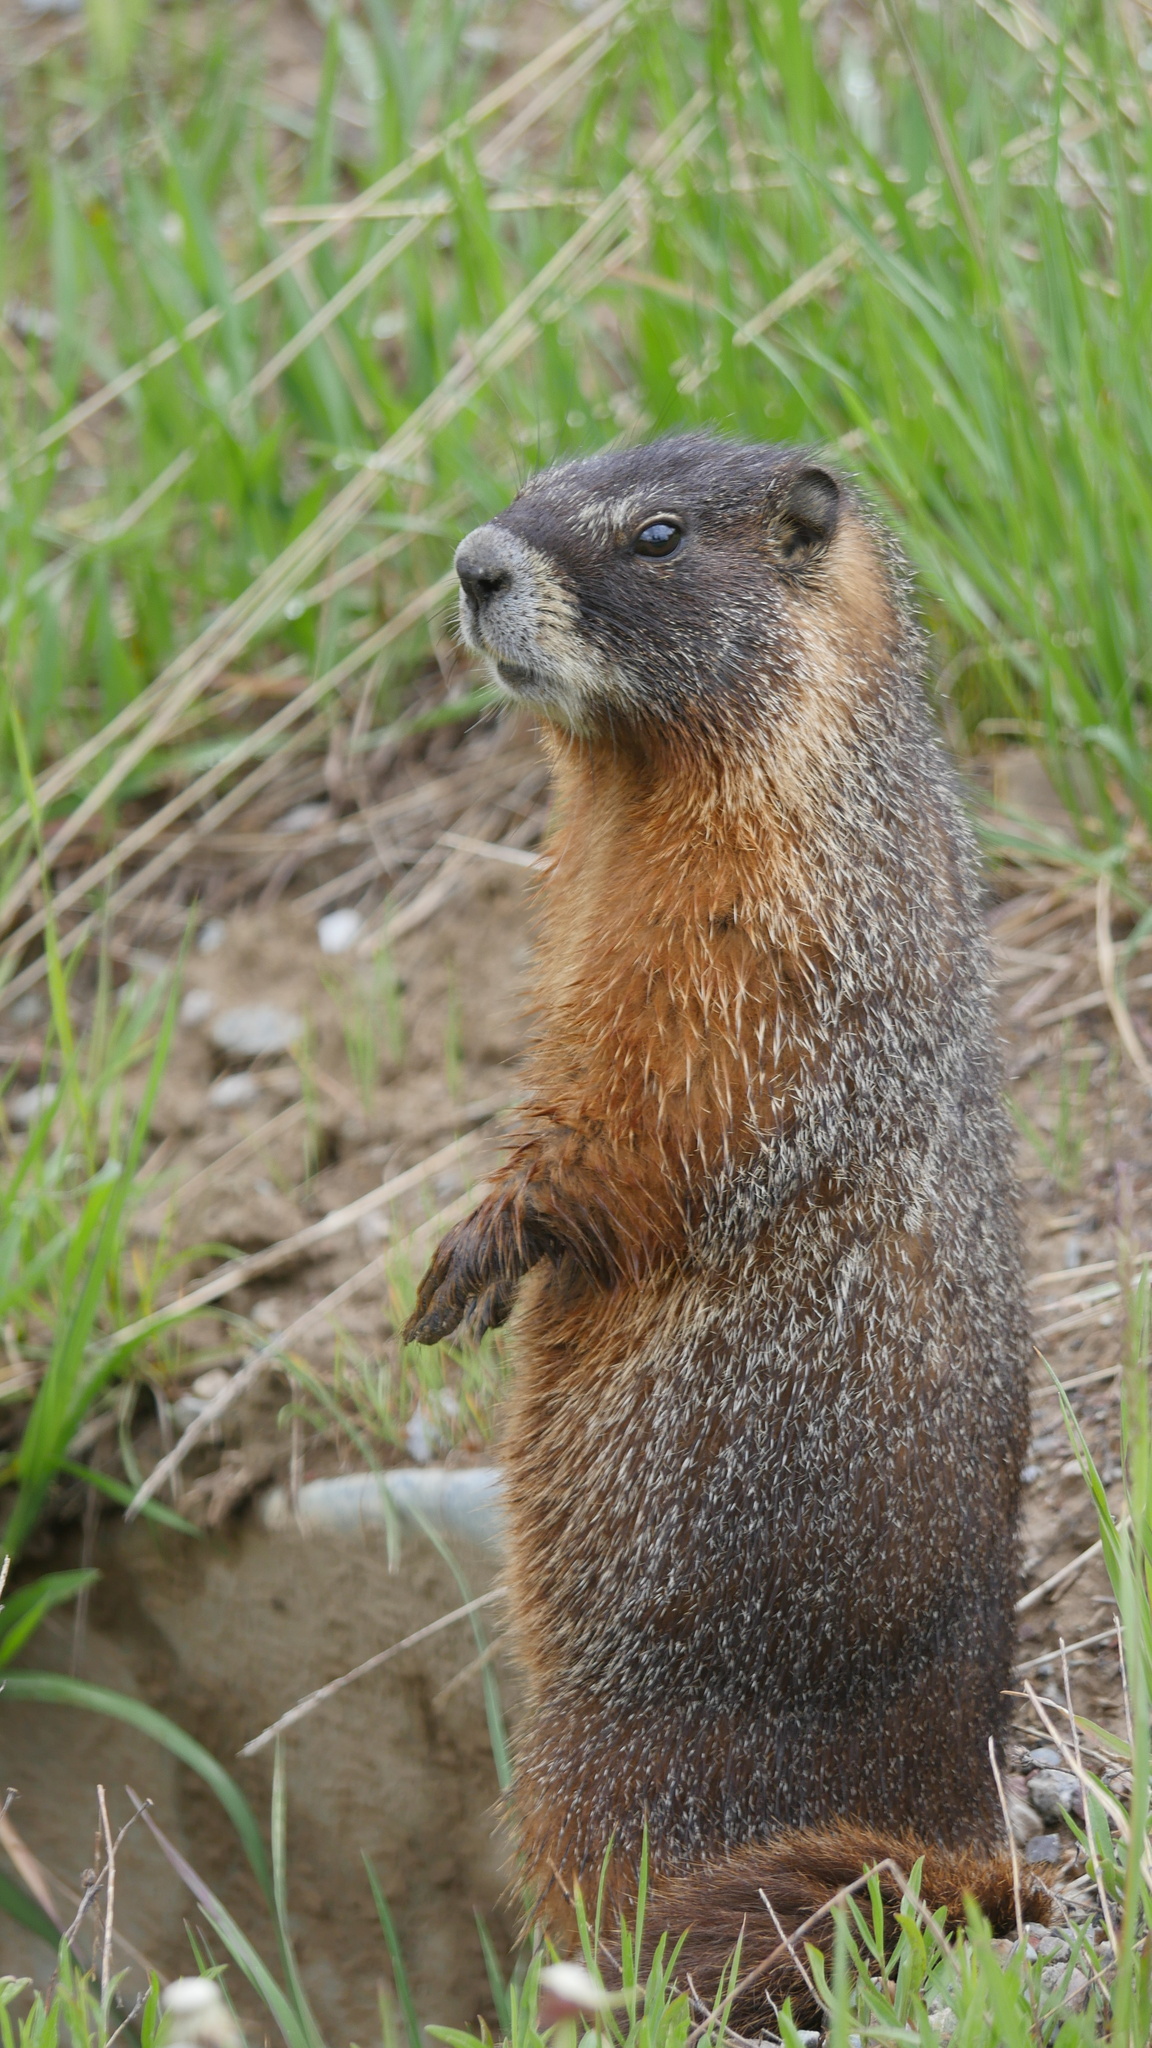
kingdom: Animalia
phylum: Chordata
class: Mammalia
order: Rodentia
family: Sciuridae
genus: Marmota
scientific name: Marmota flaviventris
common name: Yellow-bellied marmot
